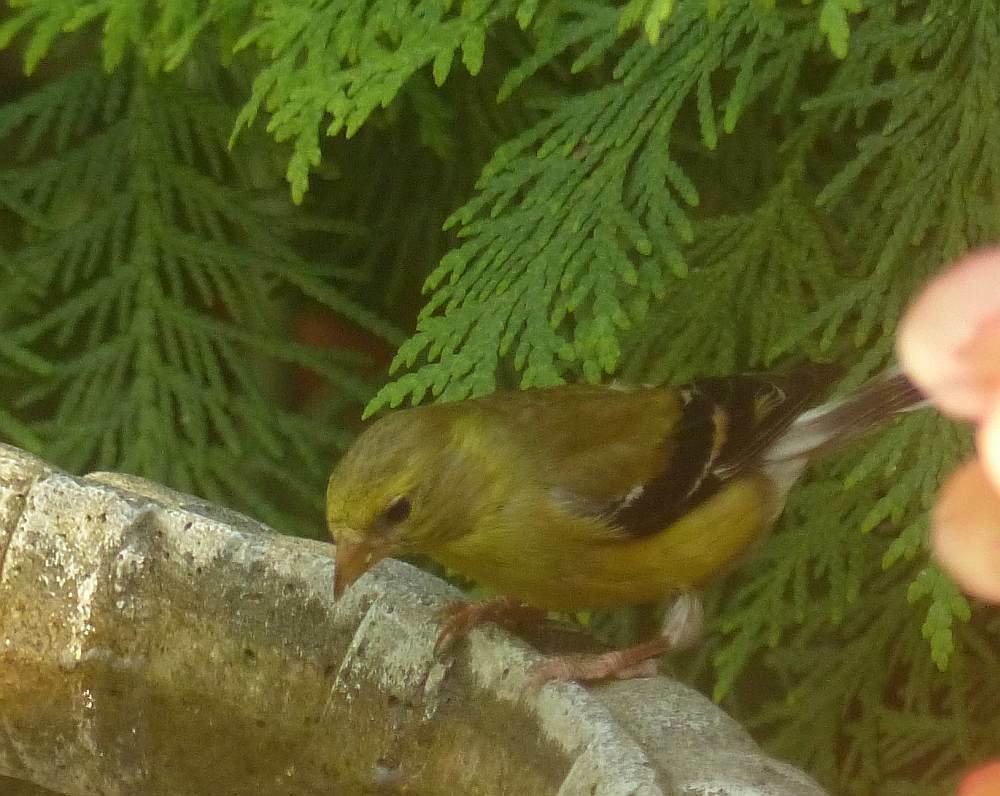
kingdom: Animalia
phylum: Chordata
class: Aves
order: Passeriformes
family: Fringillidae
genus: Spinus
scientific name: Spinus tristis
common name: American goldfinch
